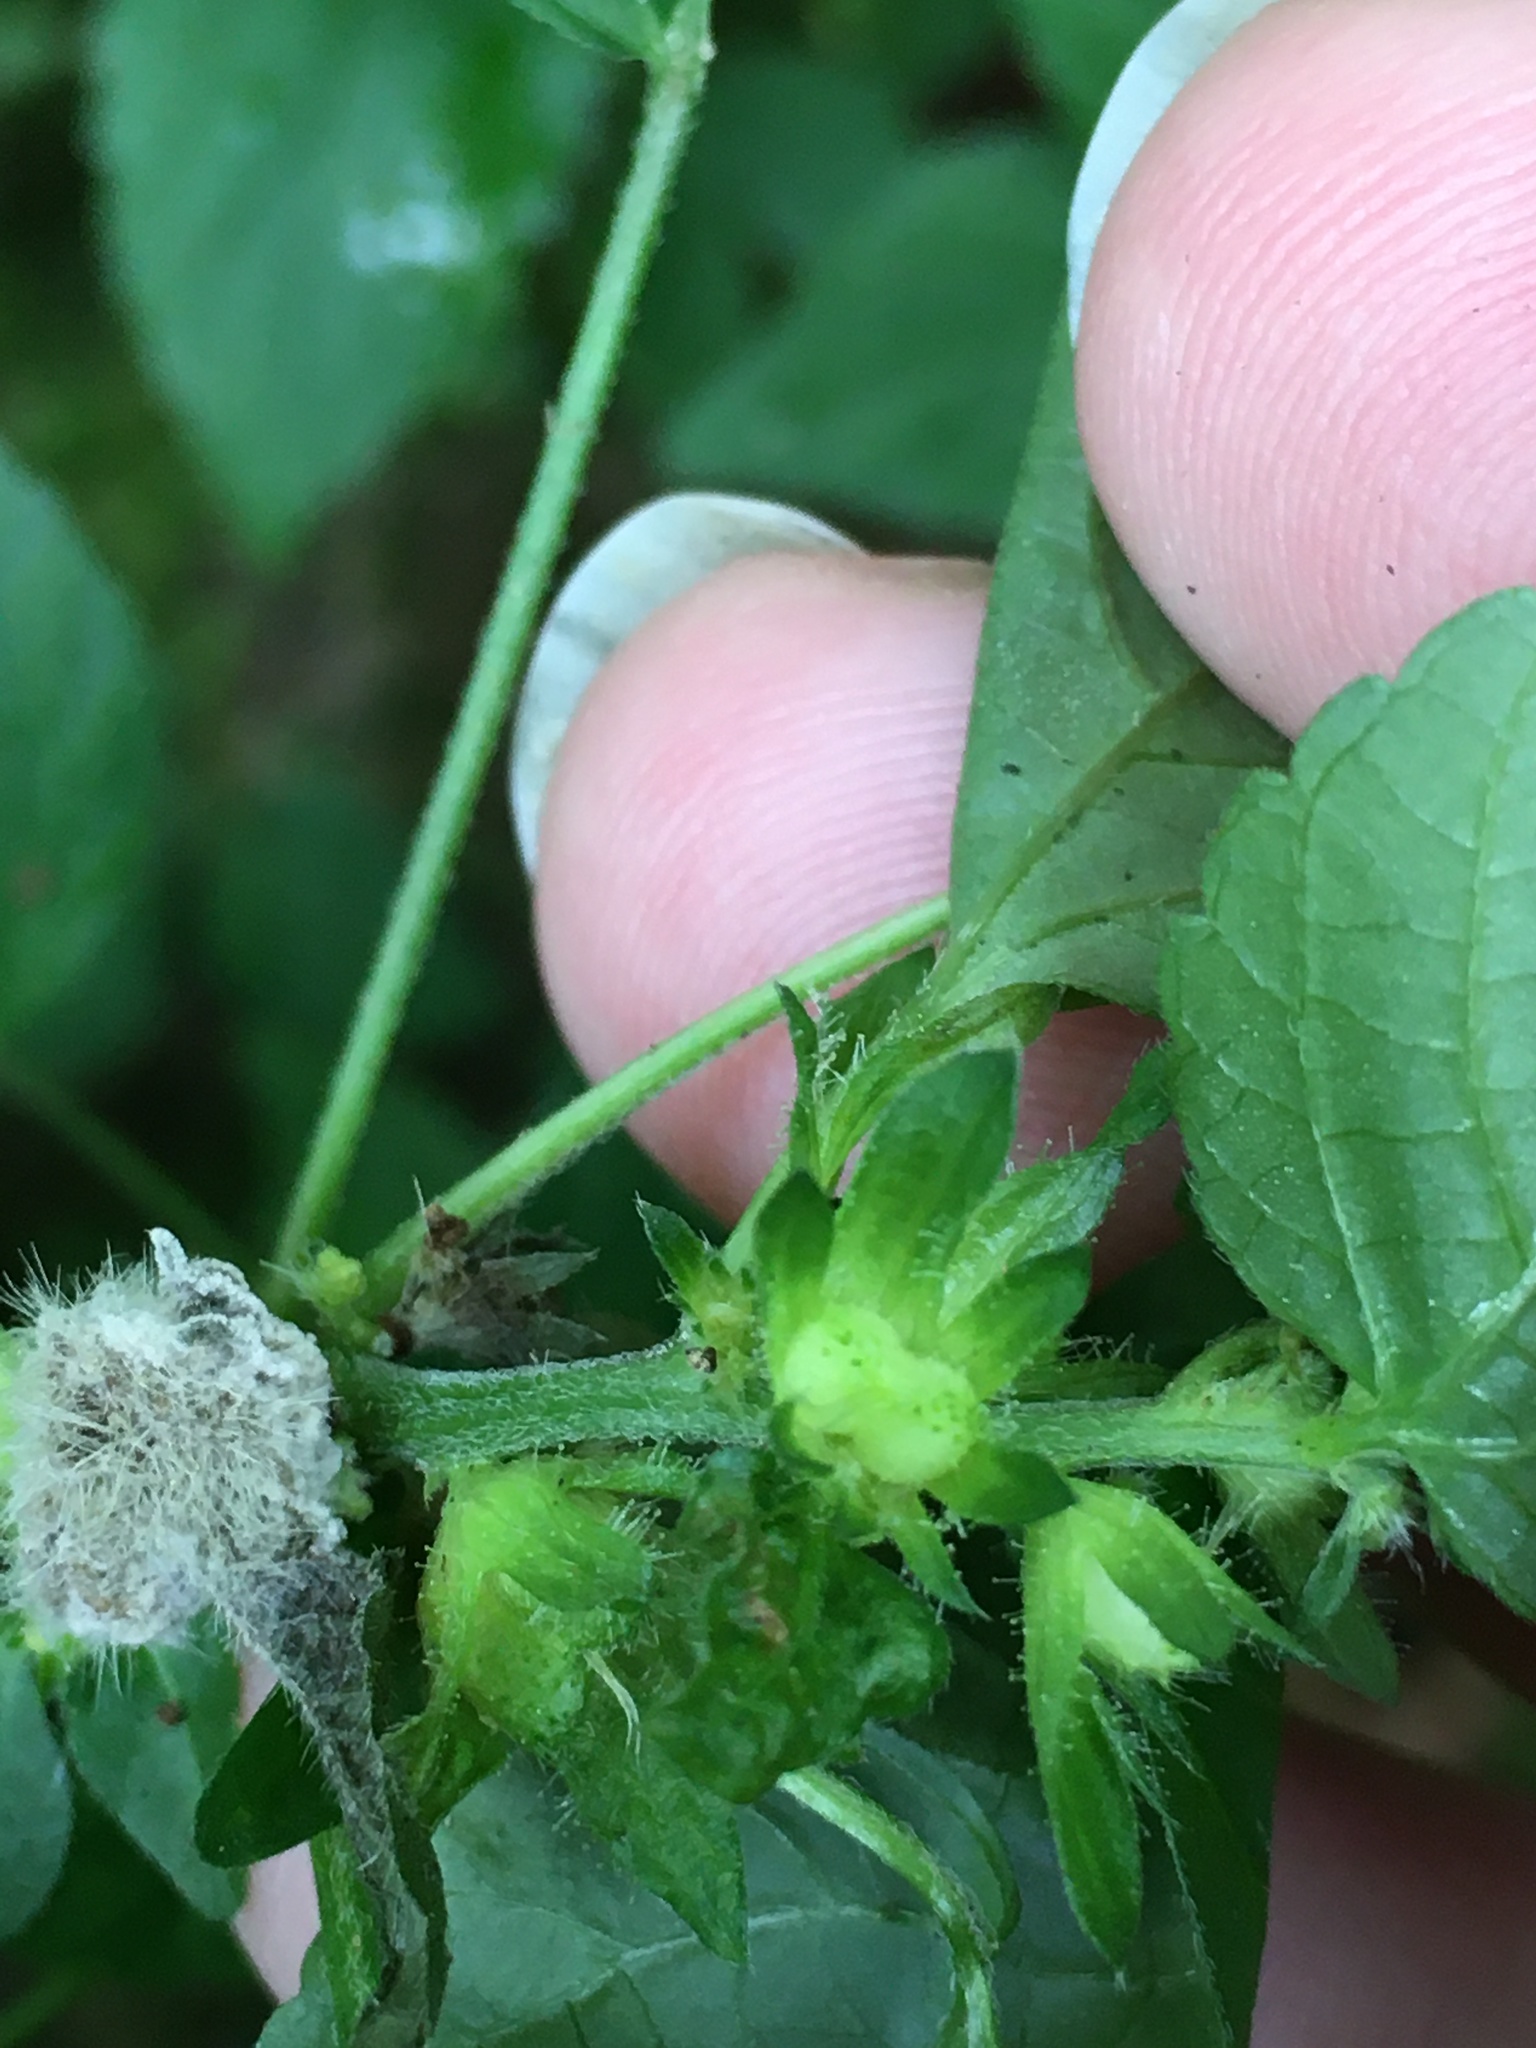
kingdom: Plantae
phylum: Tracheophyta
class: Magnoliopsida
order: Malpighiales
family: Euphorbiaceae
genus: Acalypha
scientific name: Acalypha deamii
